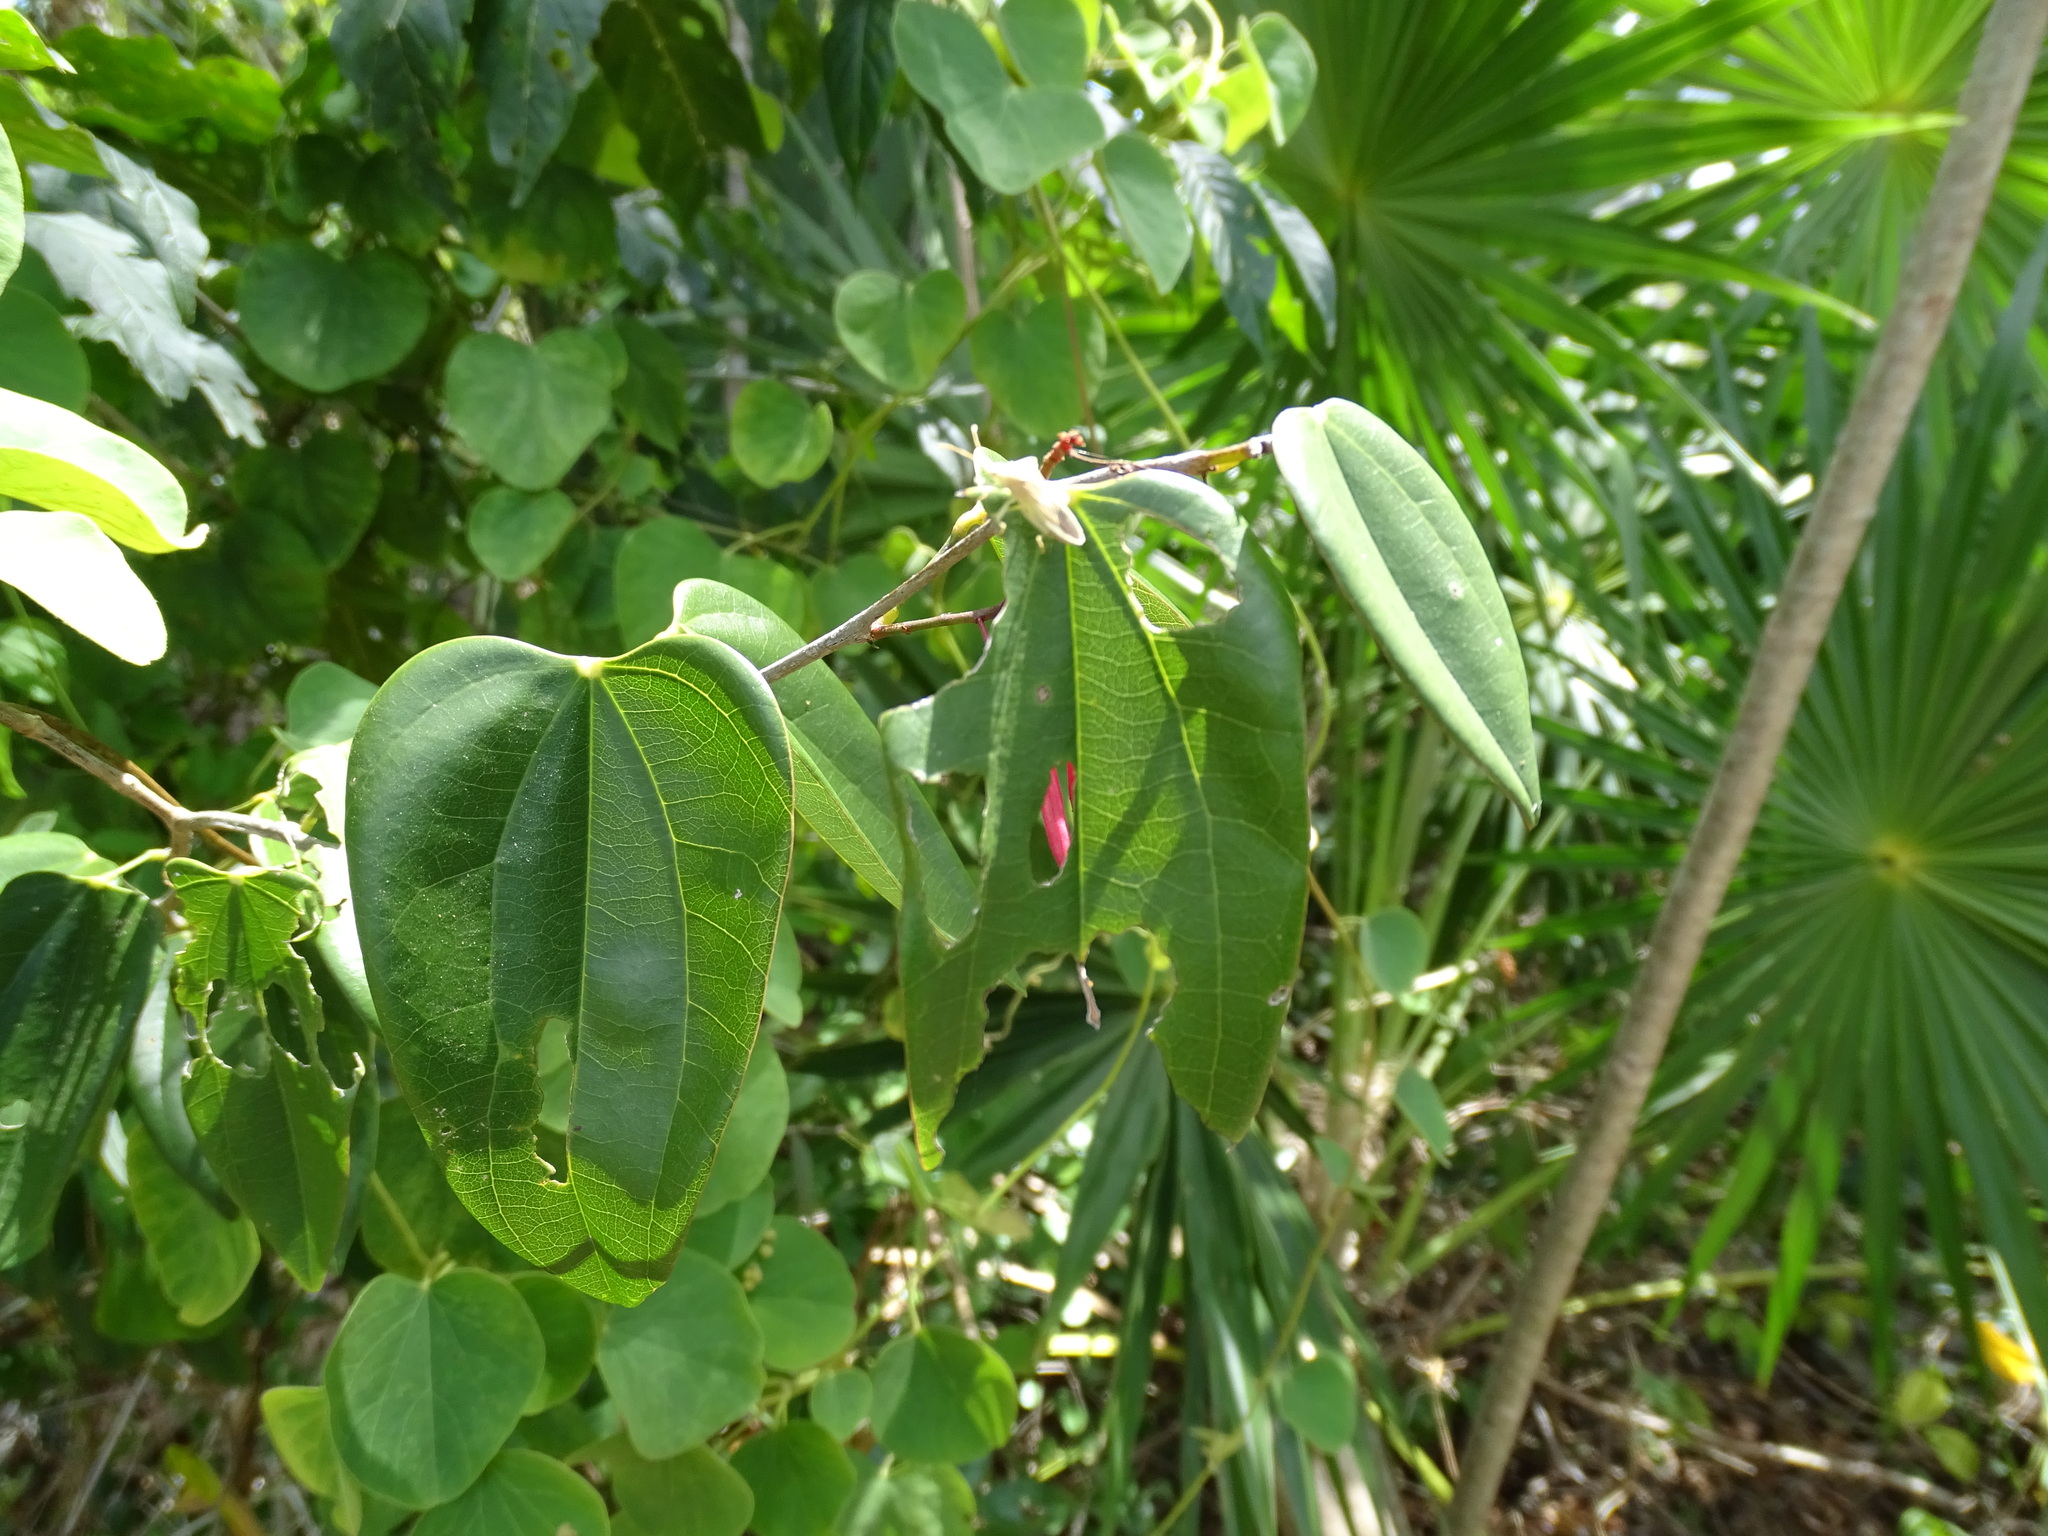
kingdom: Plantae
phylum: Tracheophyta
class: Magnoliopsida
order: Fabales
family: Fabaceae
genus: Bauhinia
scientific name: Bauhinia jenningsii
